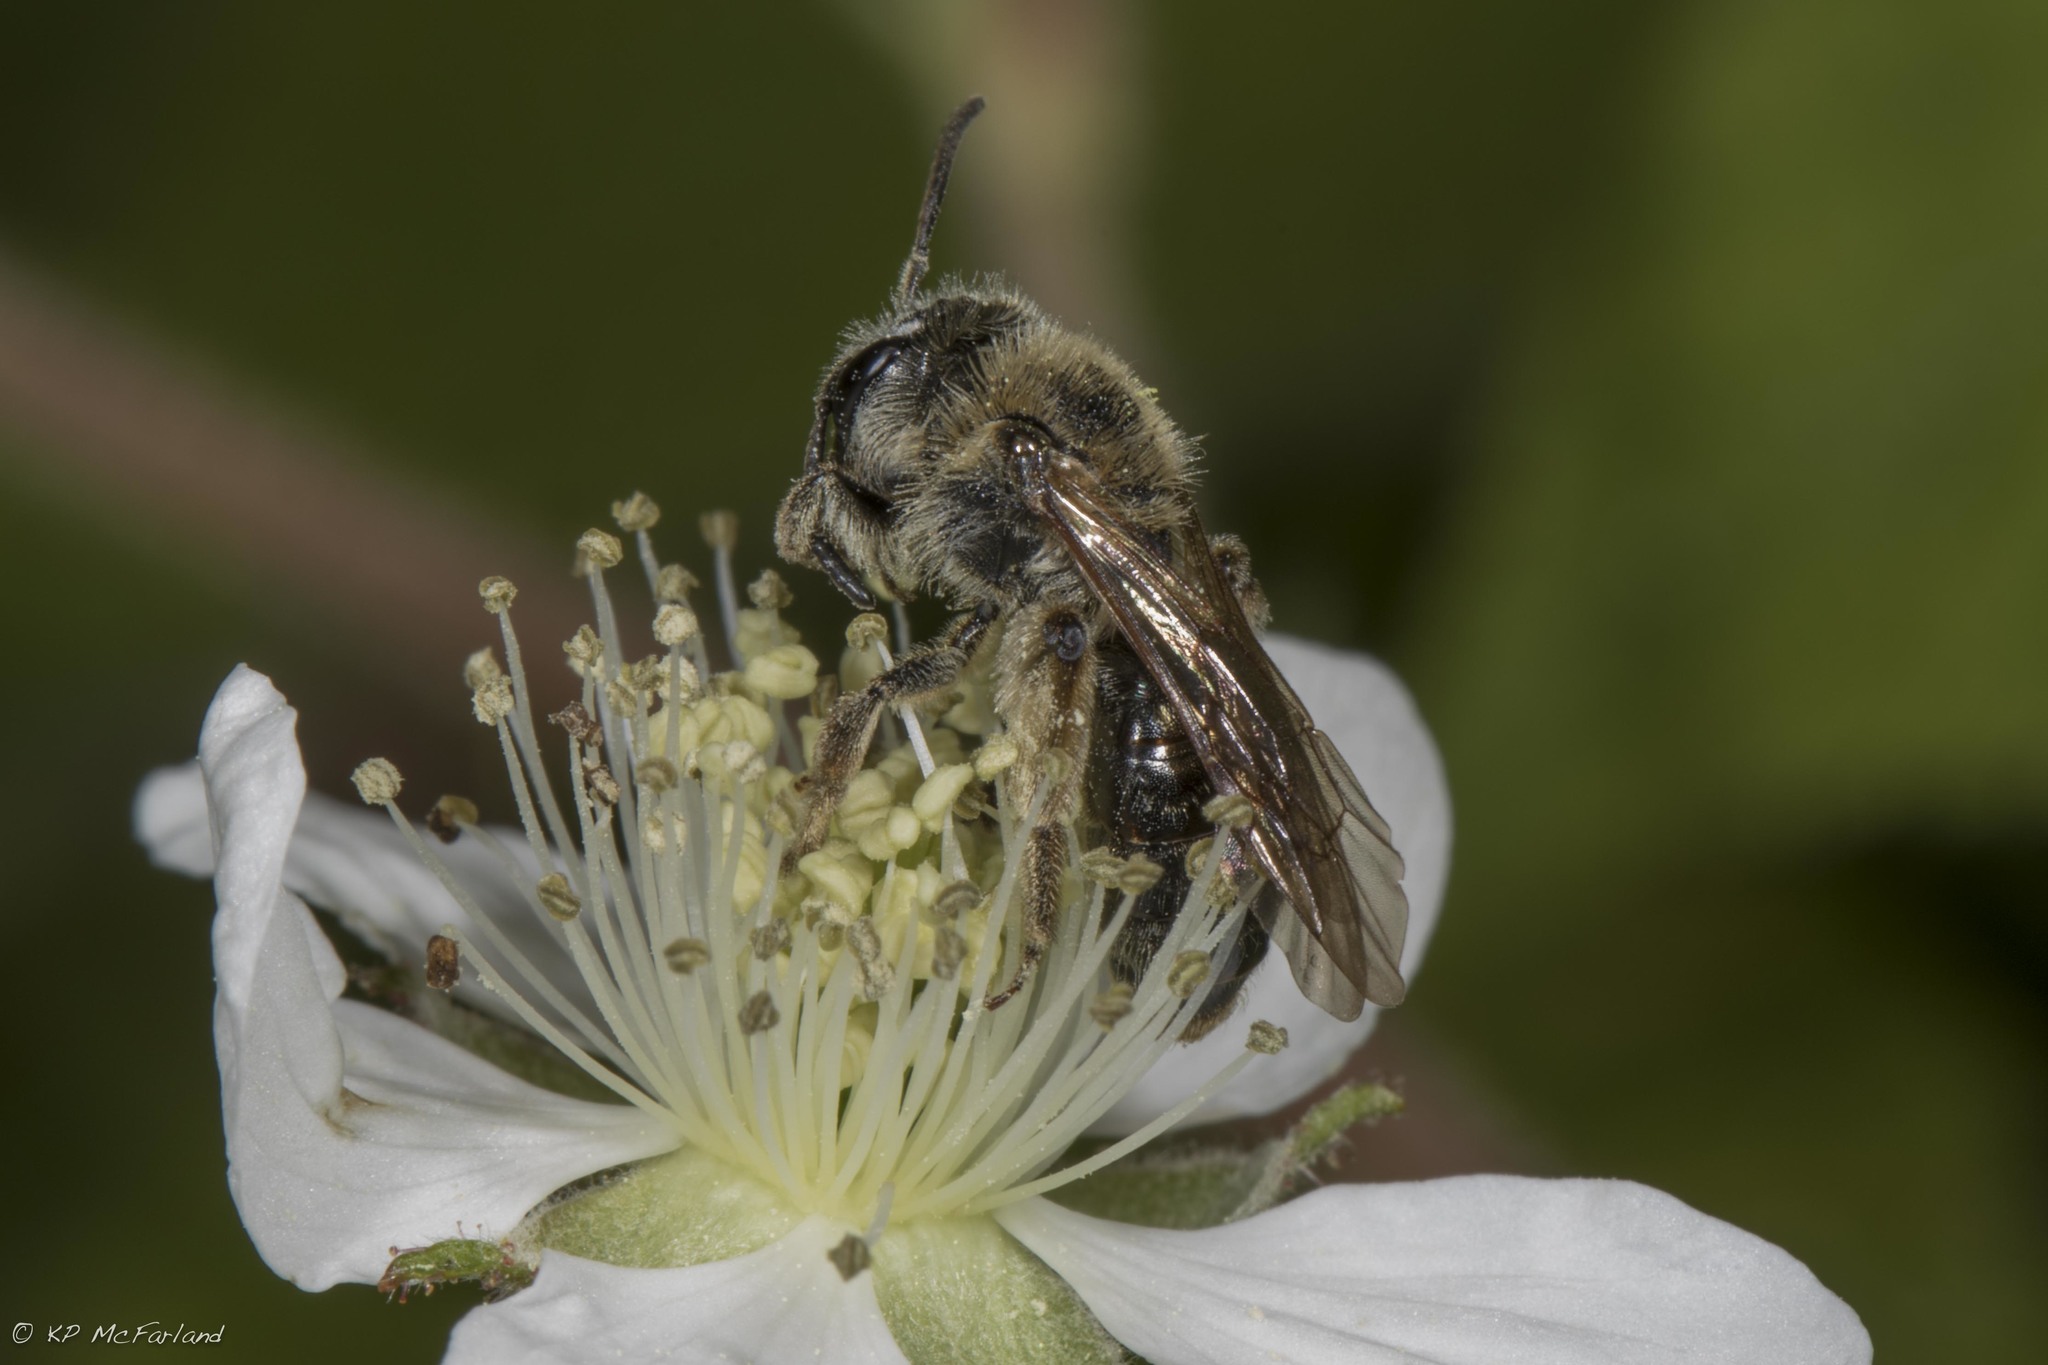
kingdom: Animalia
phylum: Arthropoda
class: Insecta
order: Hymenoptera
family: Andrenidae
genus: Andrena
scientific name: Andrena
